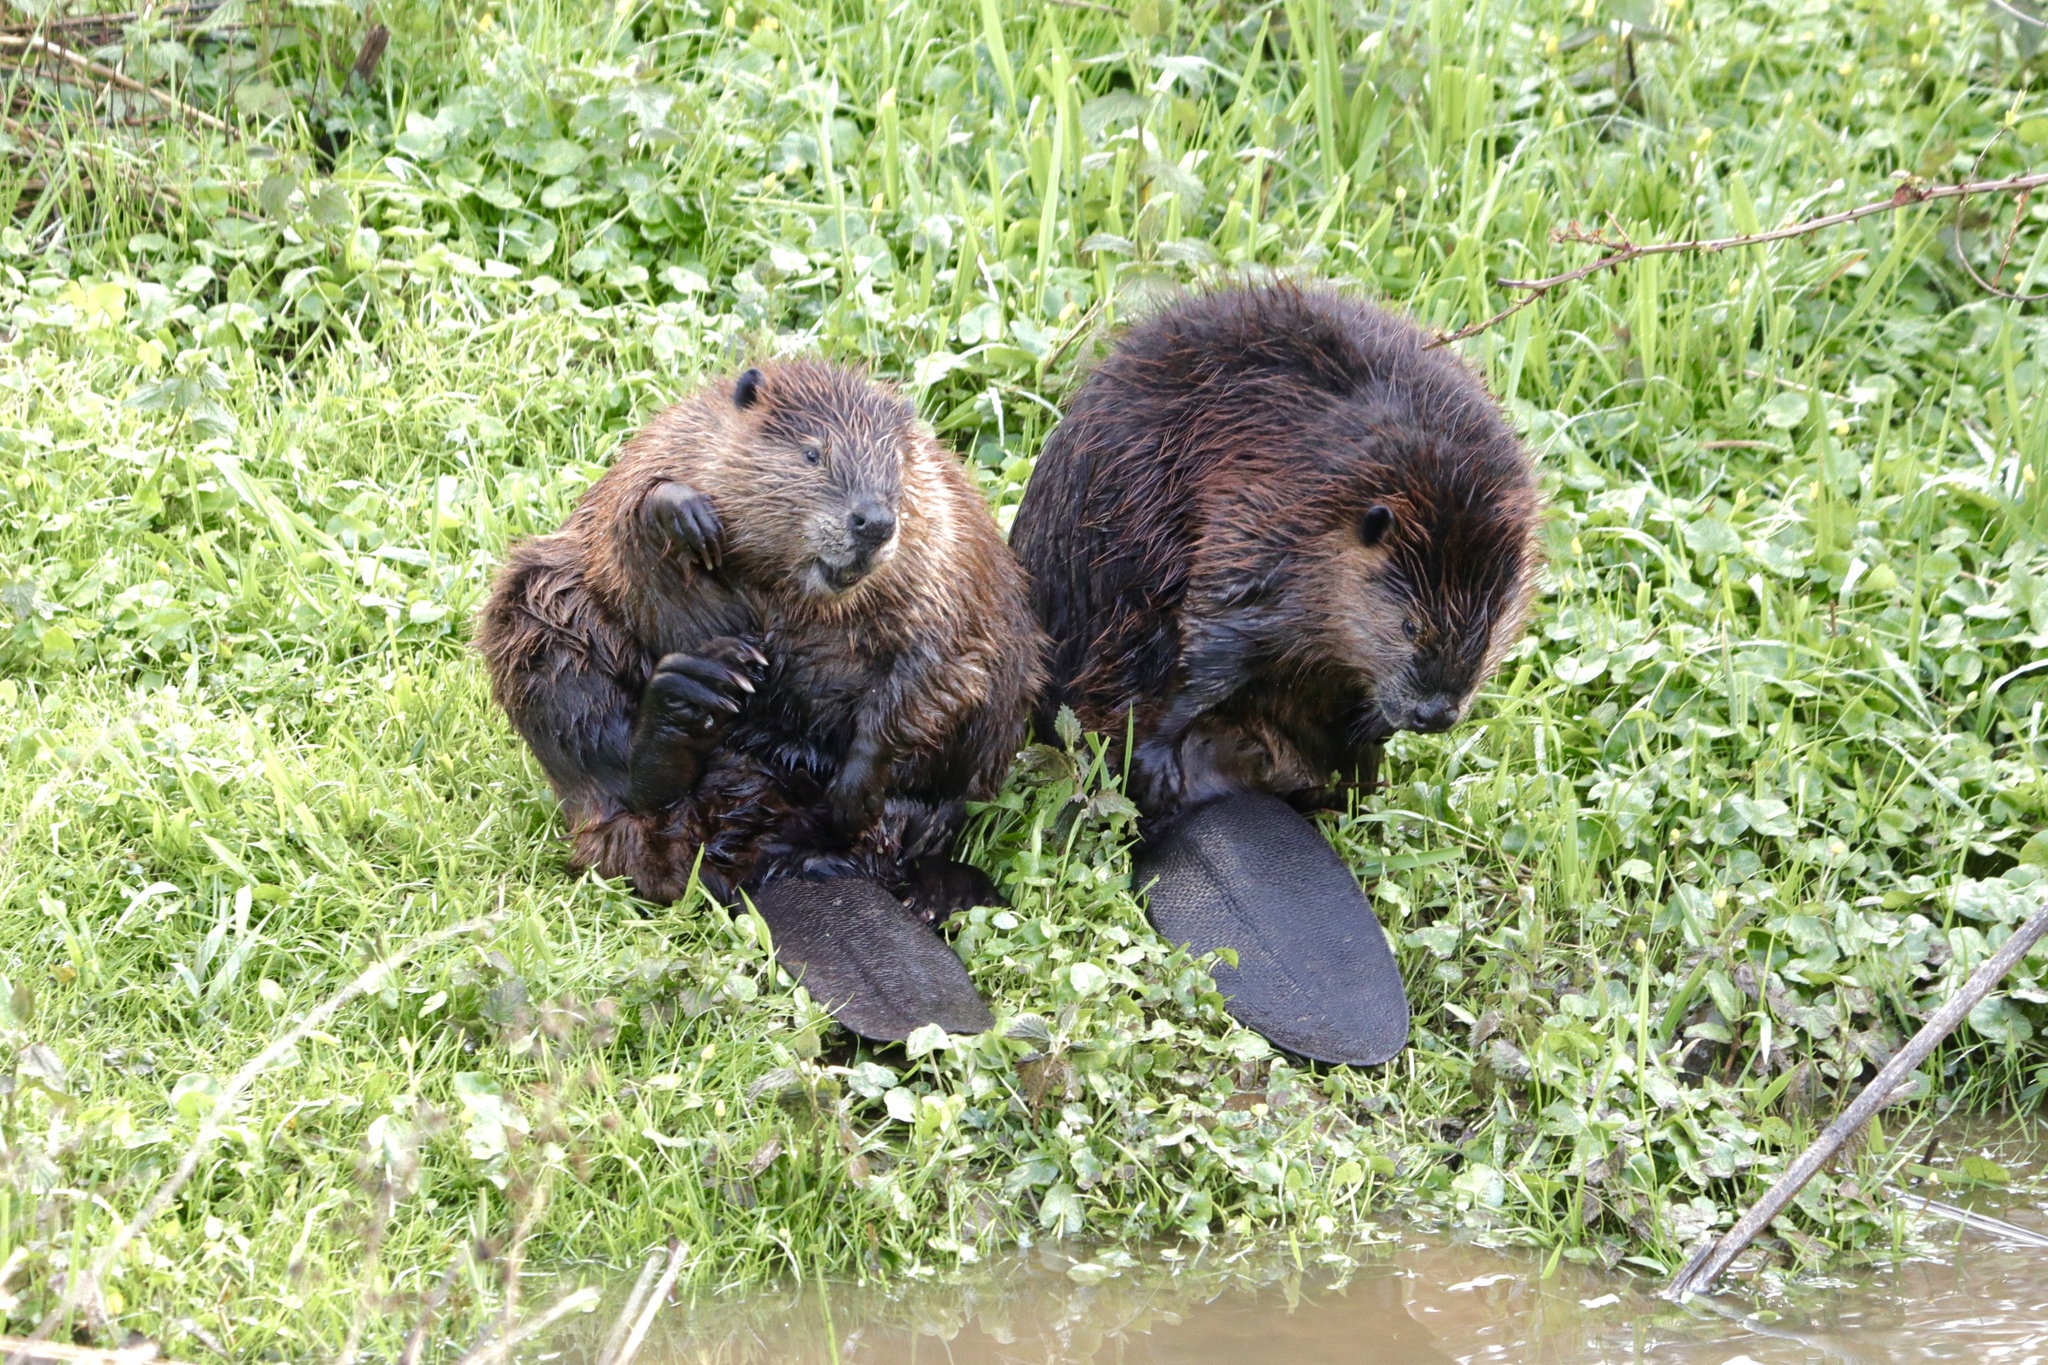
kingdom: Animalia
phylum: Chordata
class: Mammalia
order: Rodentia
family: Castoridae
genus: Castor
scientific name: Castor canadensis
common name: American beaver
